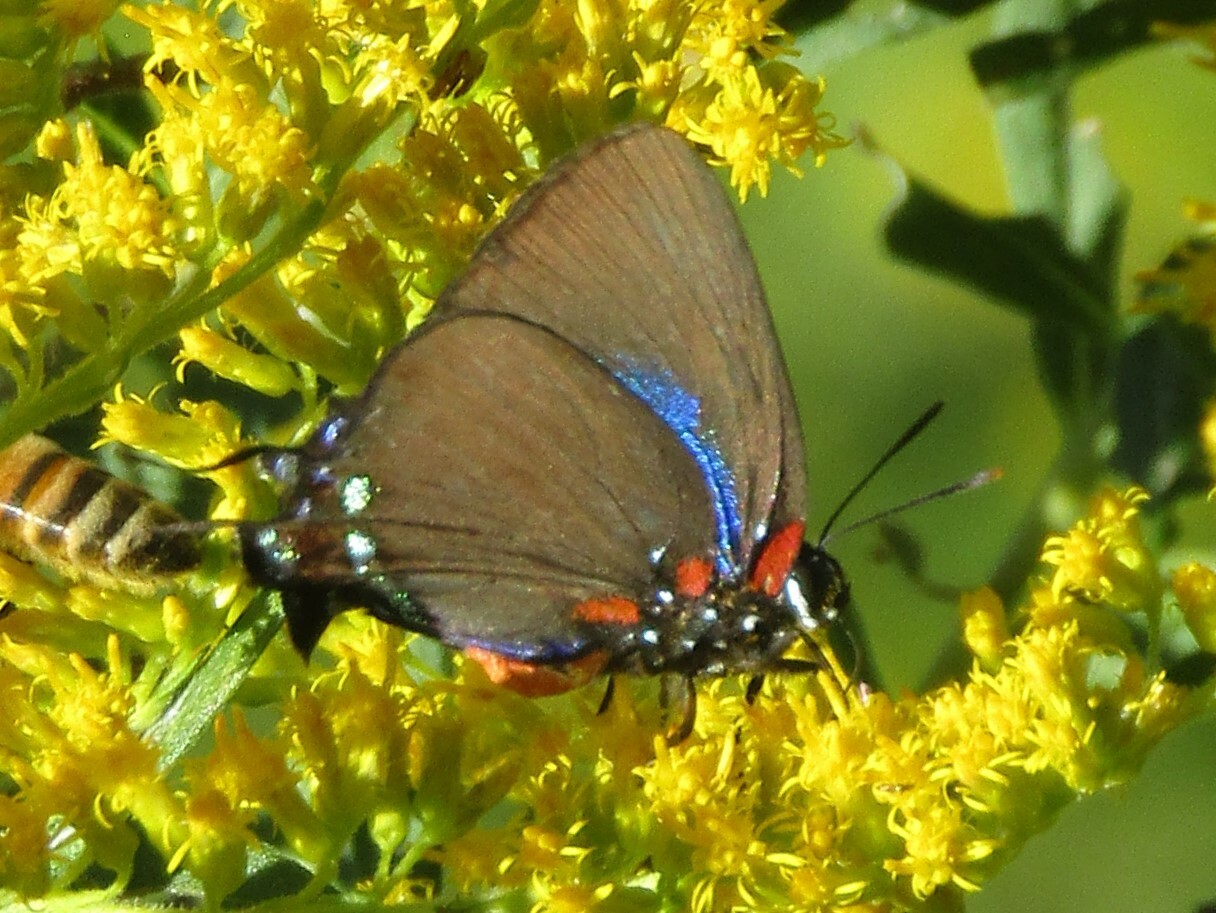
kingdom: Animalia
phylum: Arthropoda
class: Insecta
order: Lepidoptera
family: Lycaenidae
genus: Atlides
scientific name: Atlides halesus
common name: Great purple hairstreak
